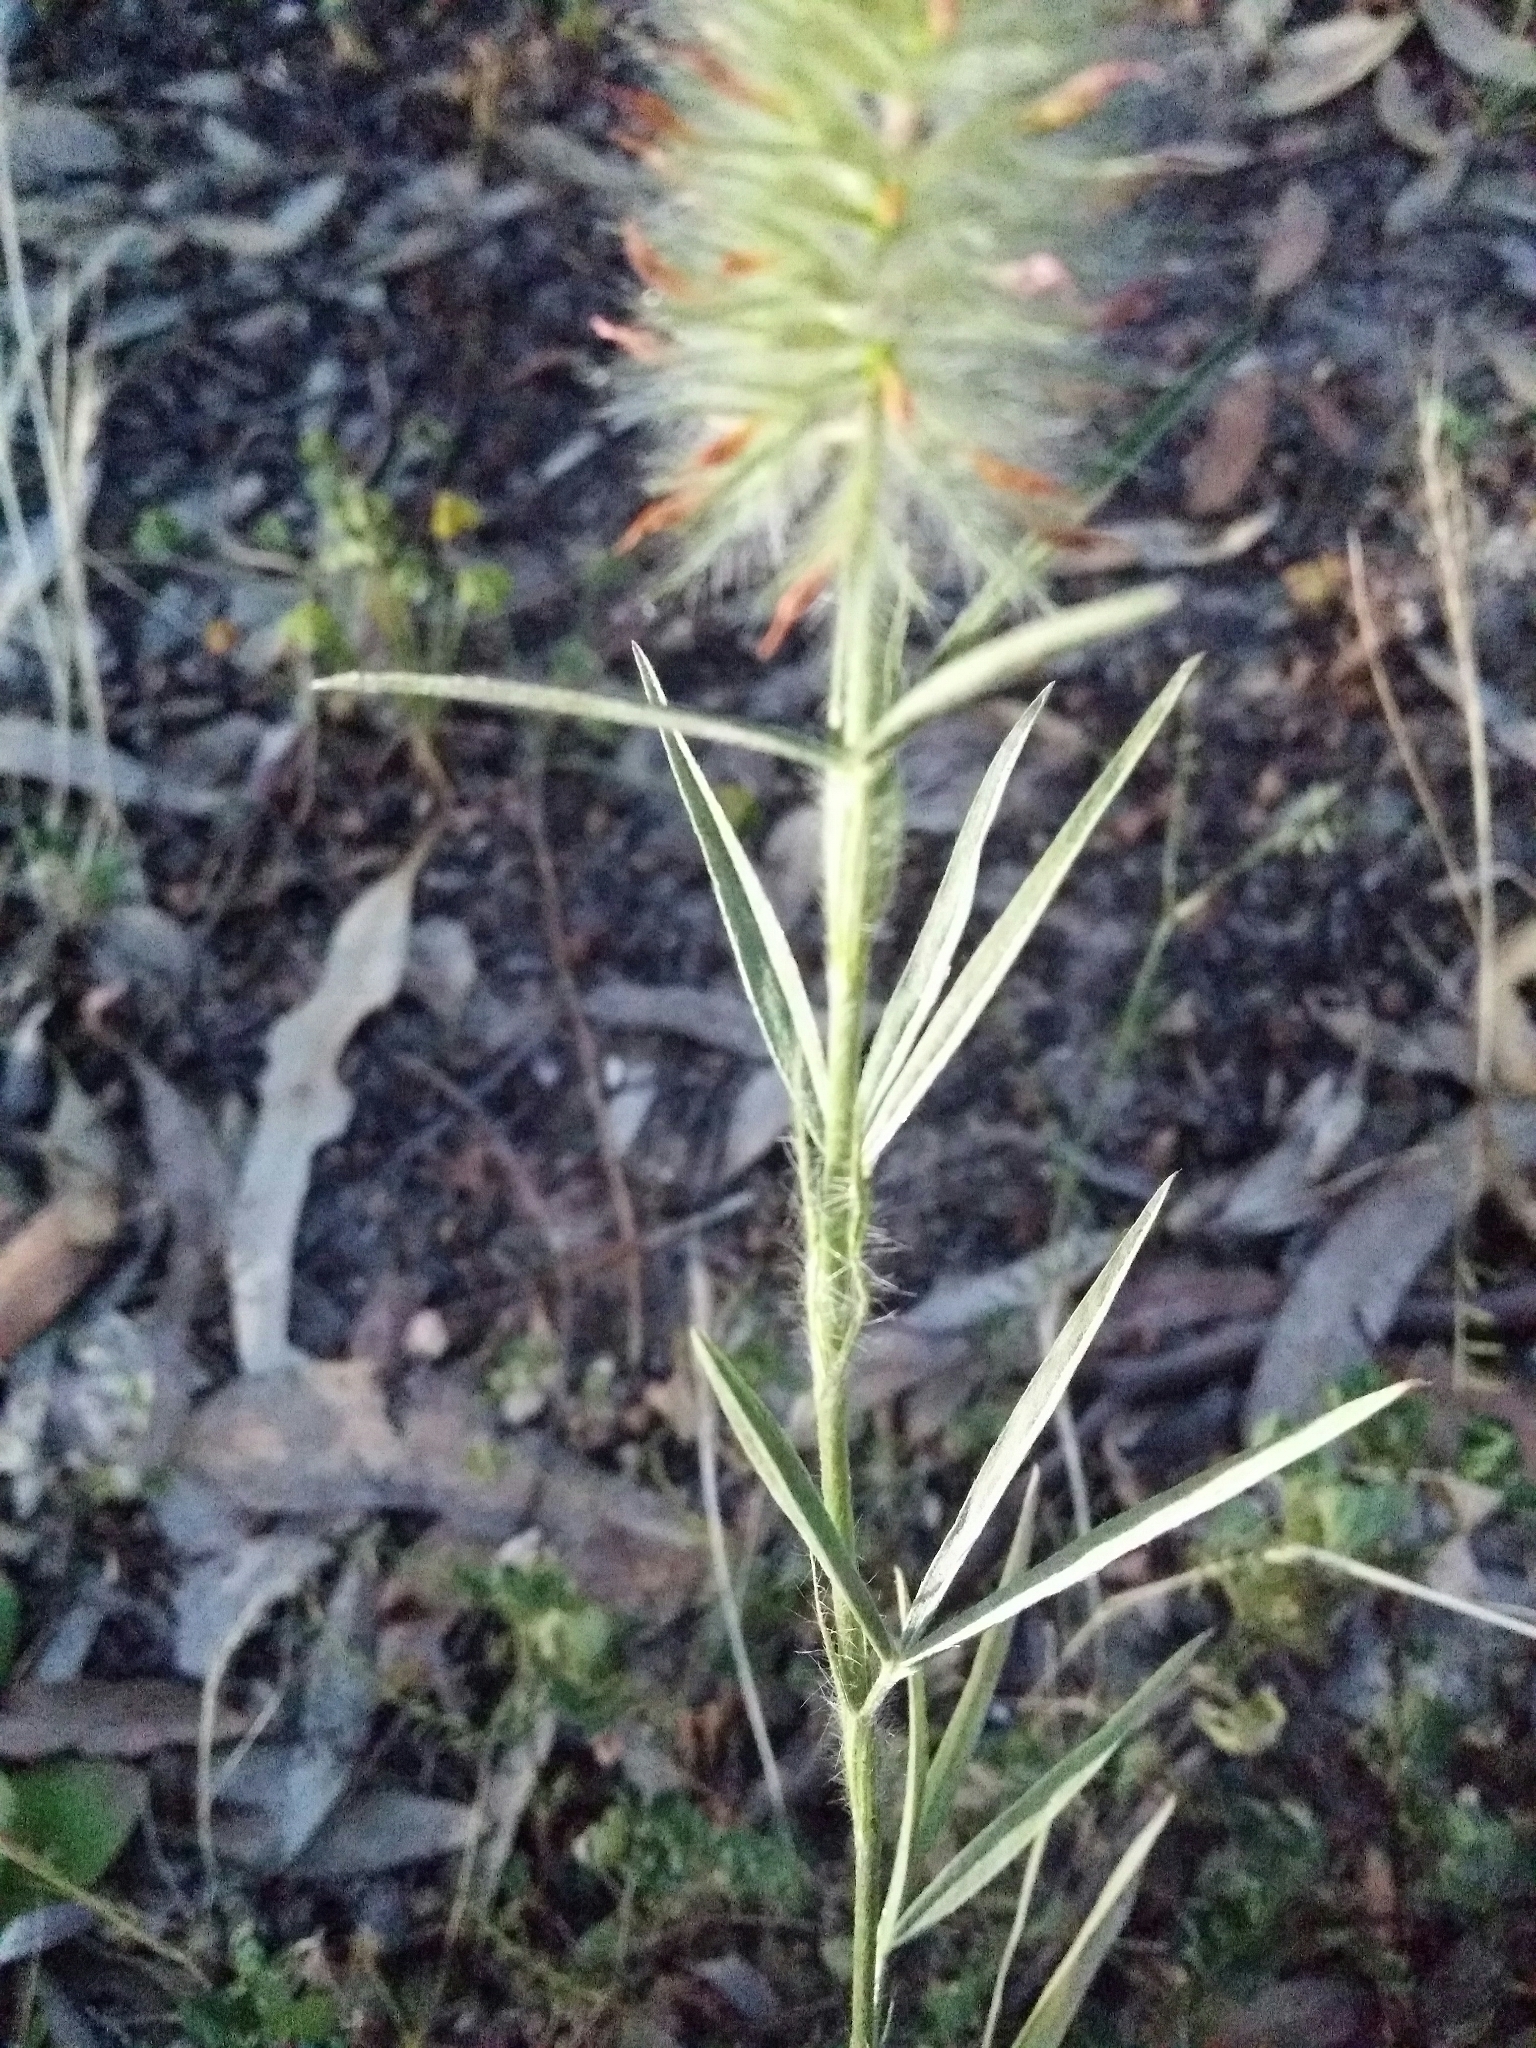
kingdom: Plantae
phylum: Tracheophyta
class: Magnoliopsida
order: Fabales
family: Fabaceae
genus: Trifolium
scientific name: Trifolium angustifolium
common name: Narrow clover
